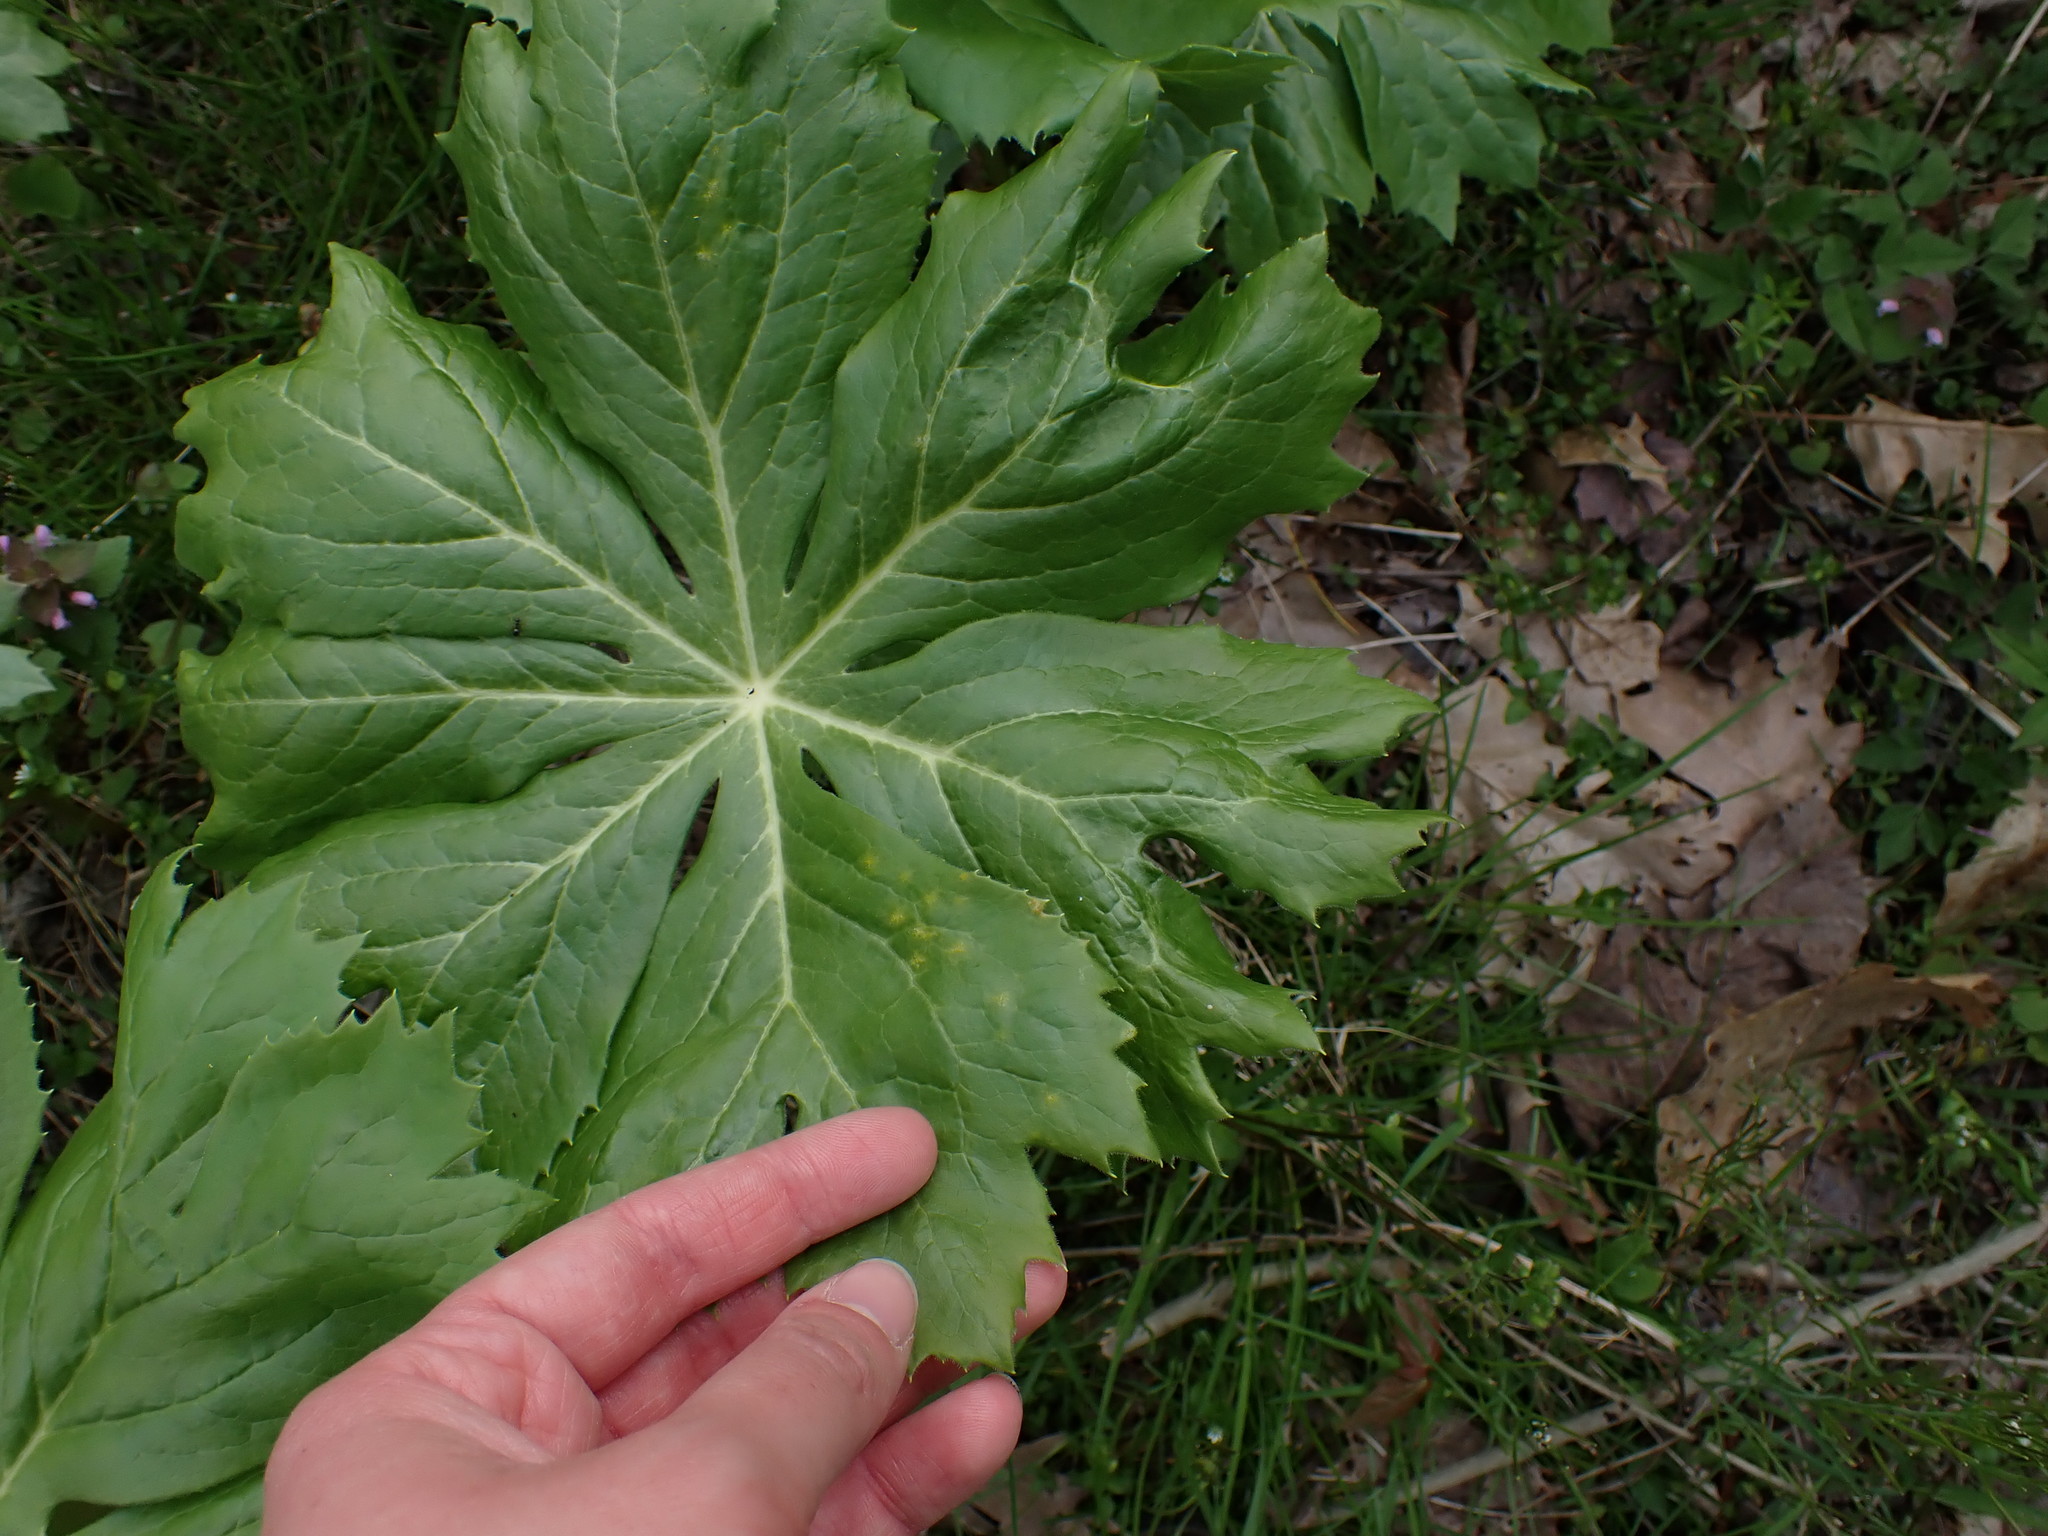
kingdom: Plantae
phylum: Tracheophyta
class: Magnoliopsida
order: Ranunculales
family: Berberidaceae
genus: Podophyllum
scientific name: Podophyllum peltatum
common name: Wild mandrake
